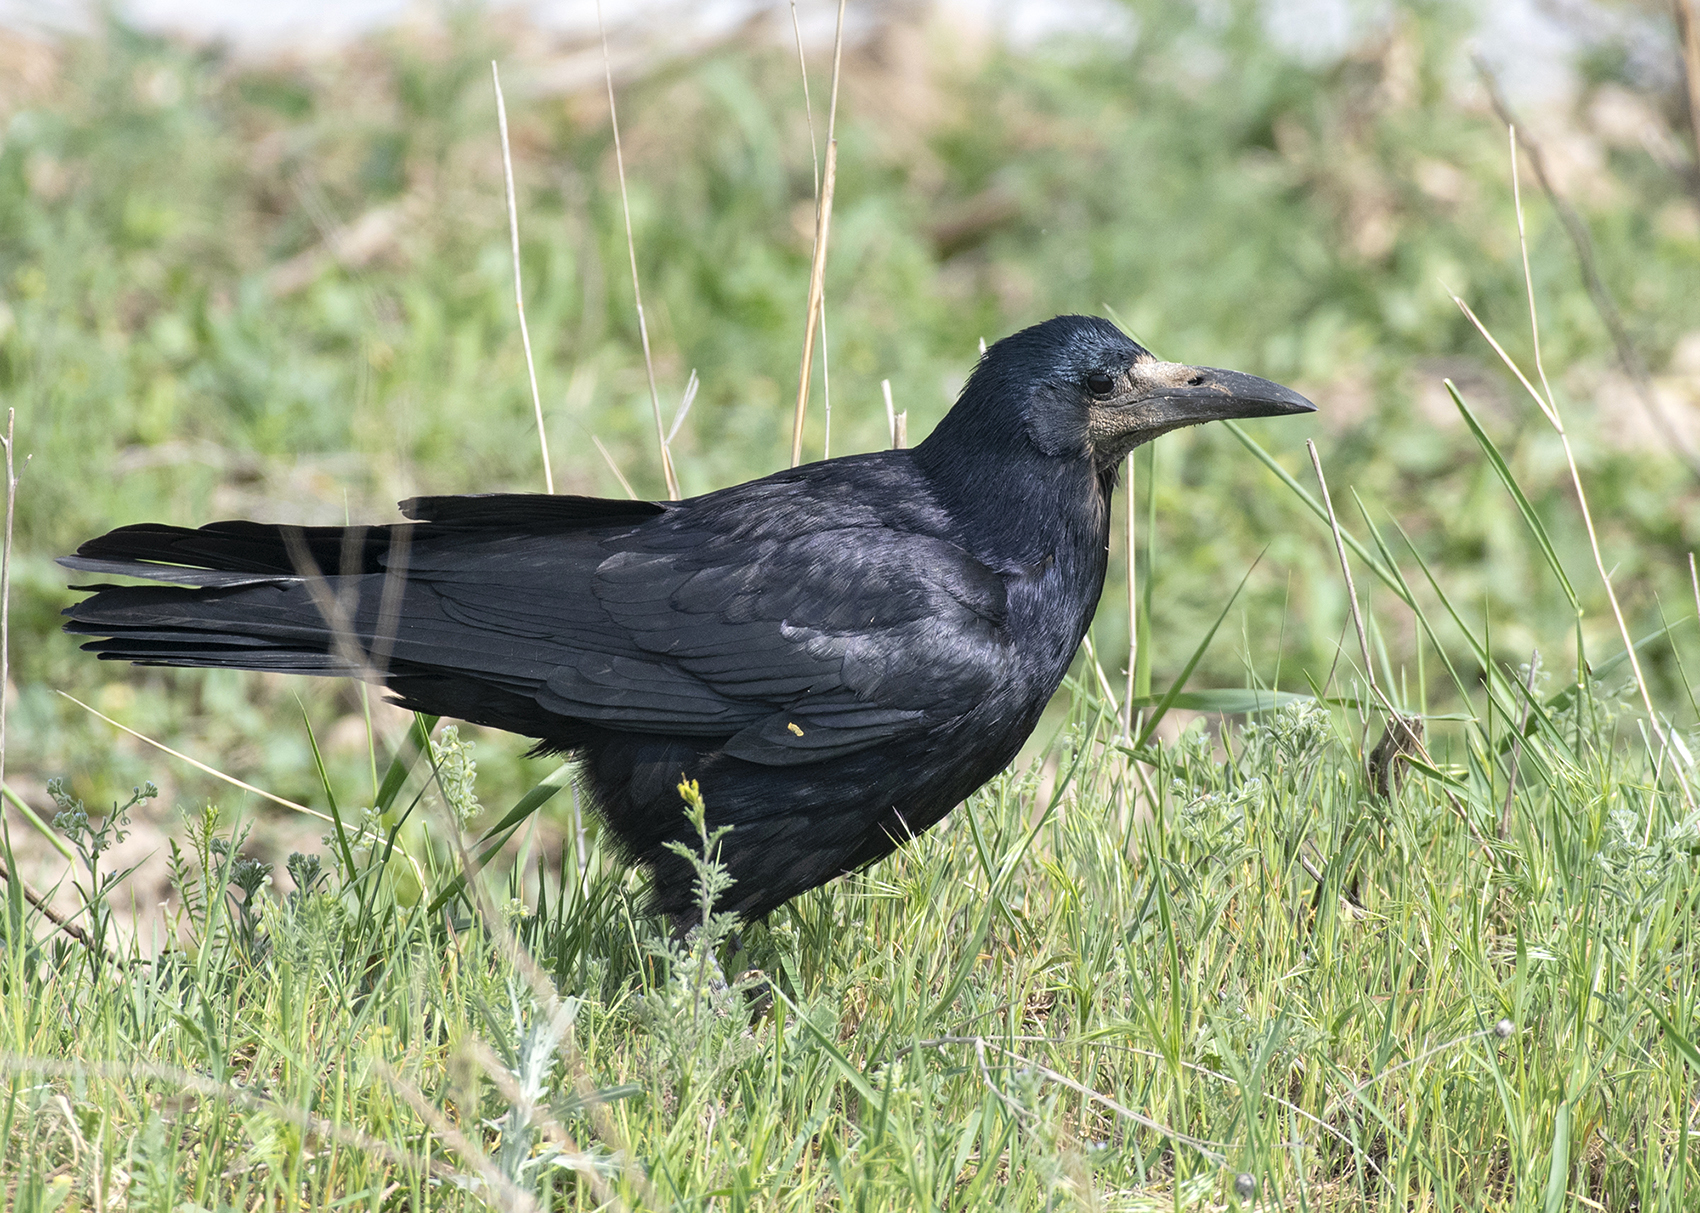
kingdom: Animalia
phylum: Chordata
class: Aves
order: Passeriformes
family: Corvidae
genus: Corvus
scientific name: Corvus frugilegus
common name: Rook
